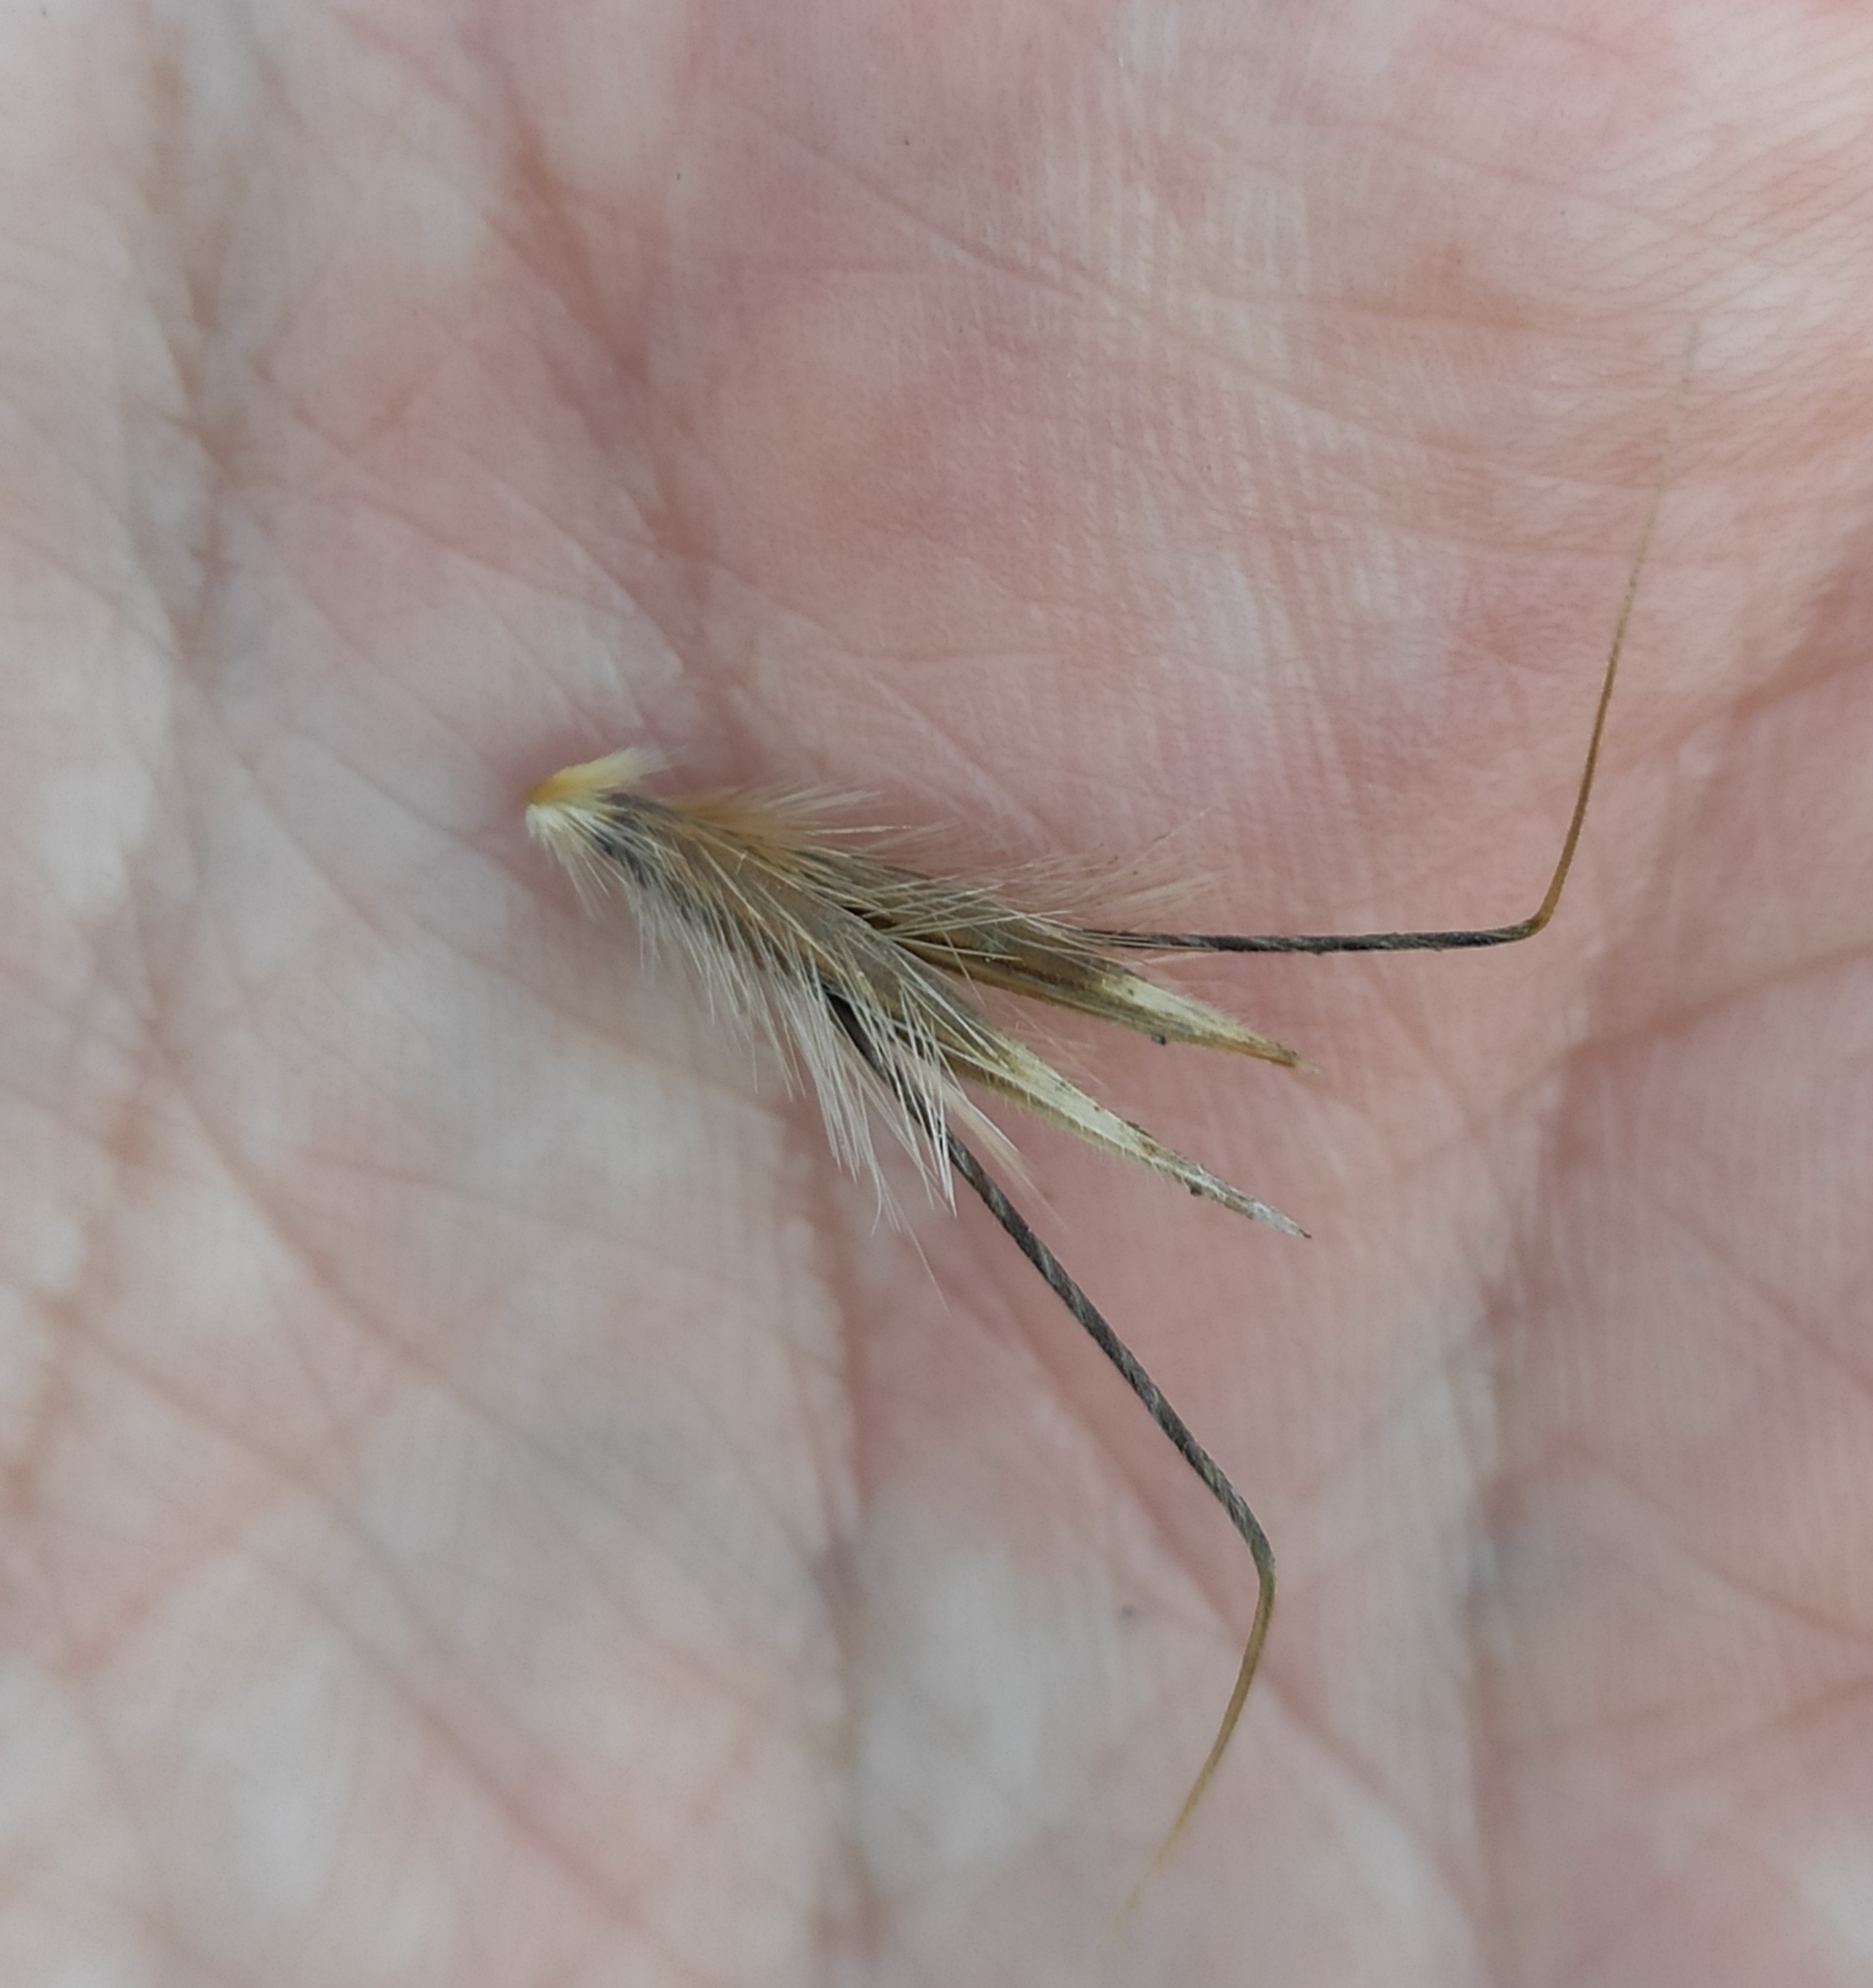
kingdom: Plantae
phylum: Tracheophyta
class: Liliopsida
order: Poales
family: Poaceae
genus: Avena
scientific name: Avena fatua
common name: Wild oat
